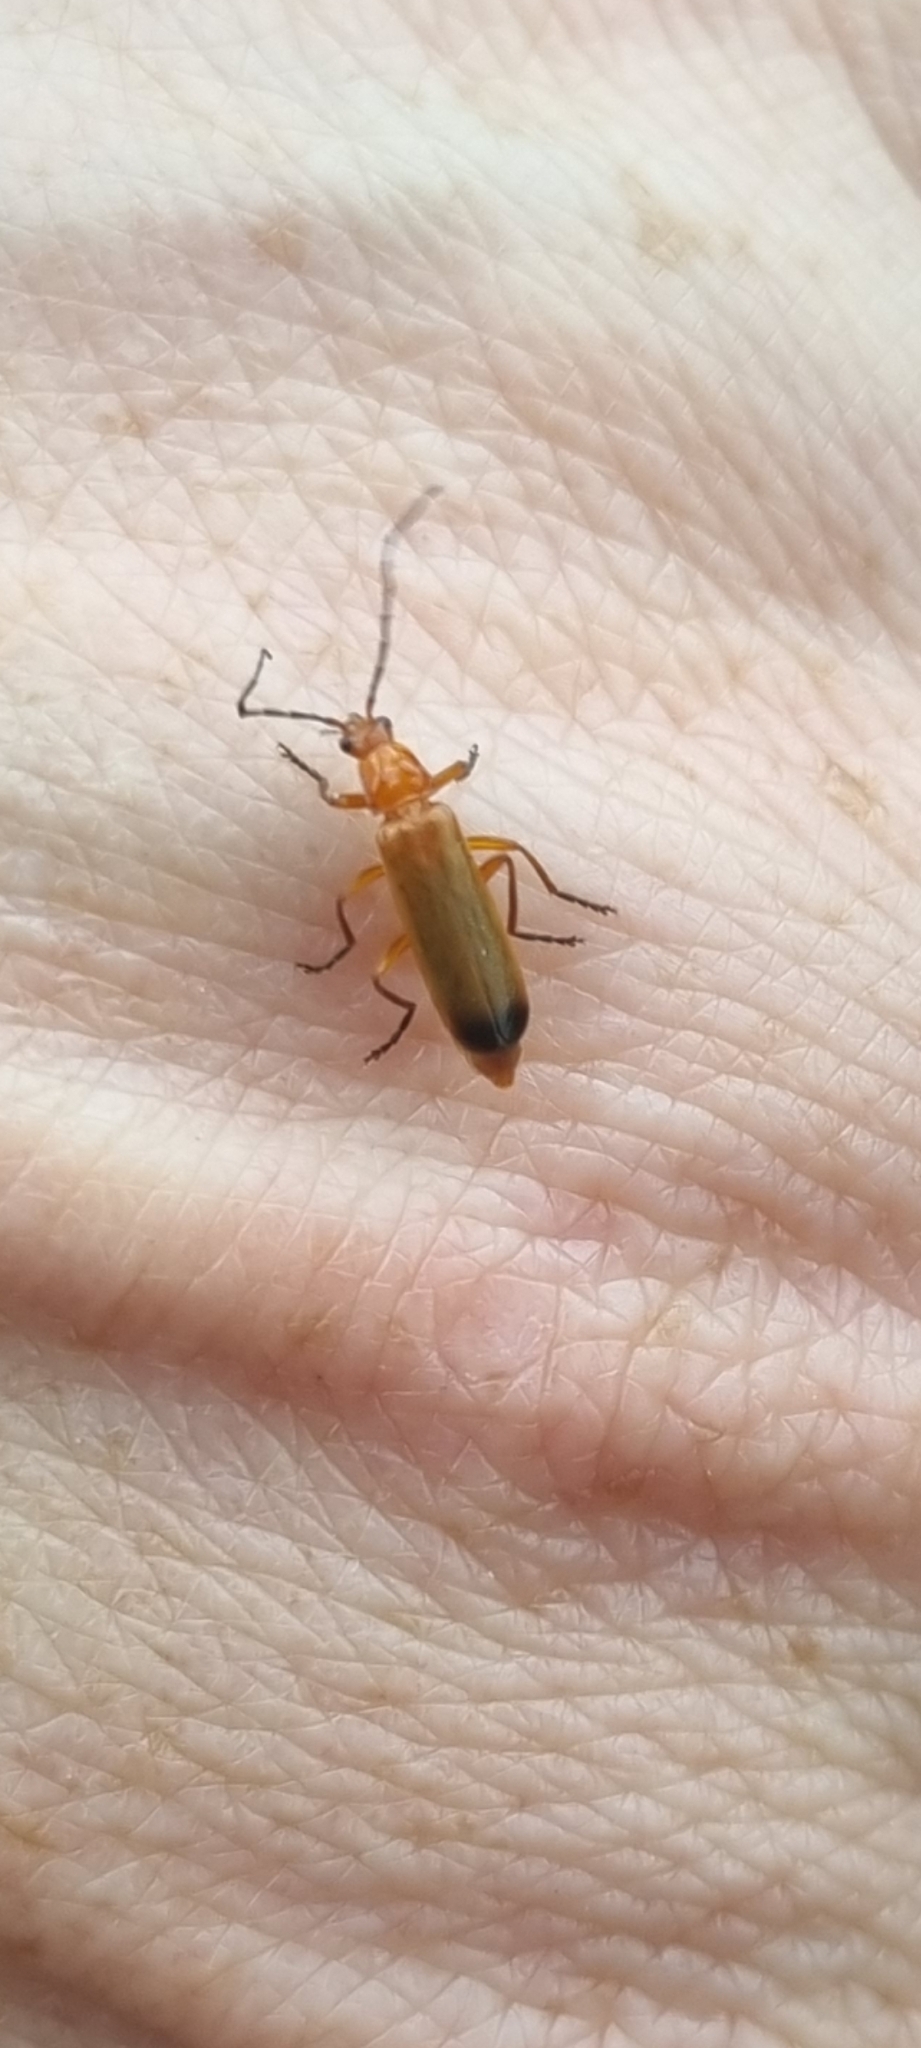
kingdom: Animalia
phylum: Arthropoda
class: Insecta
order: Coleoptera
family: Cantharidae
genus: Rhagonycha
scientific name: Rhagonycha fulva
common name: Common red soldier beetle
